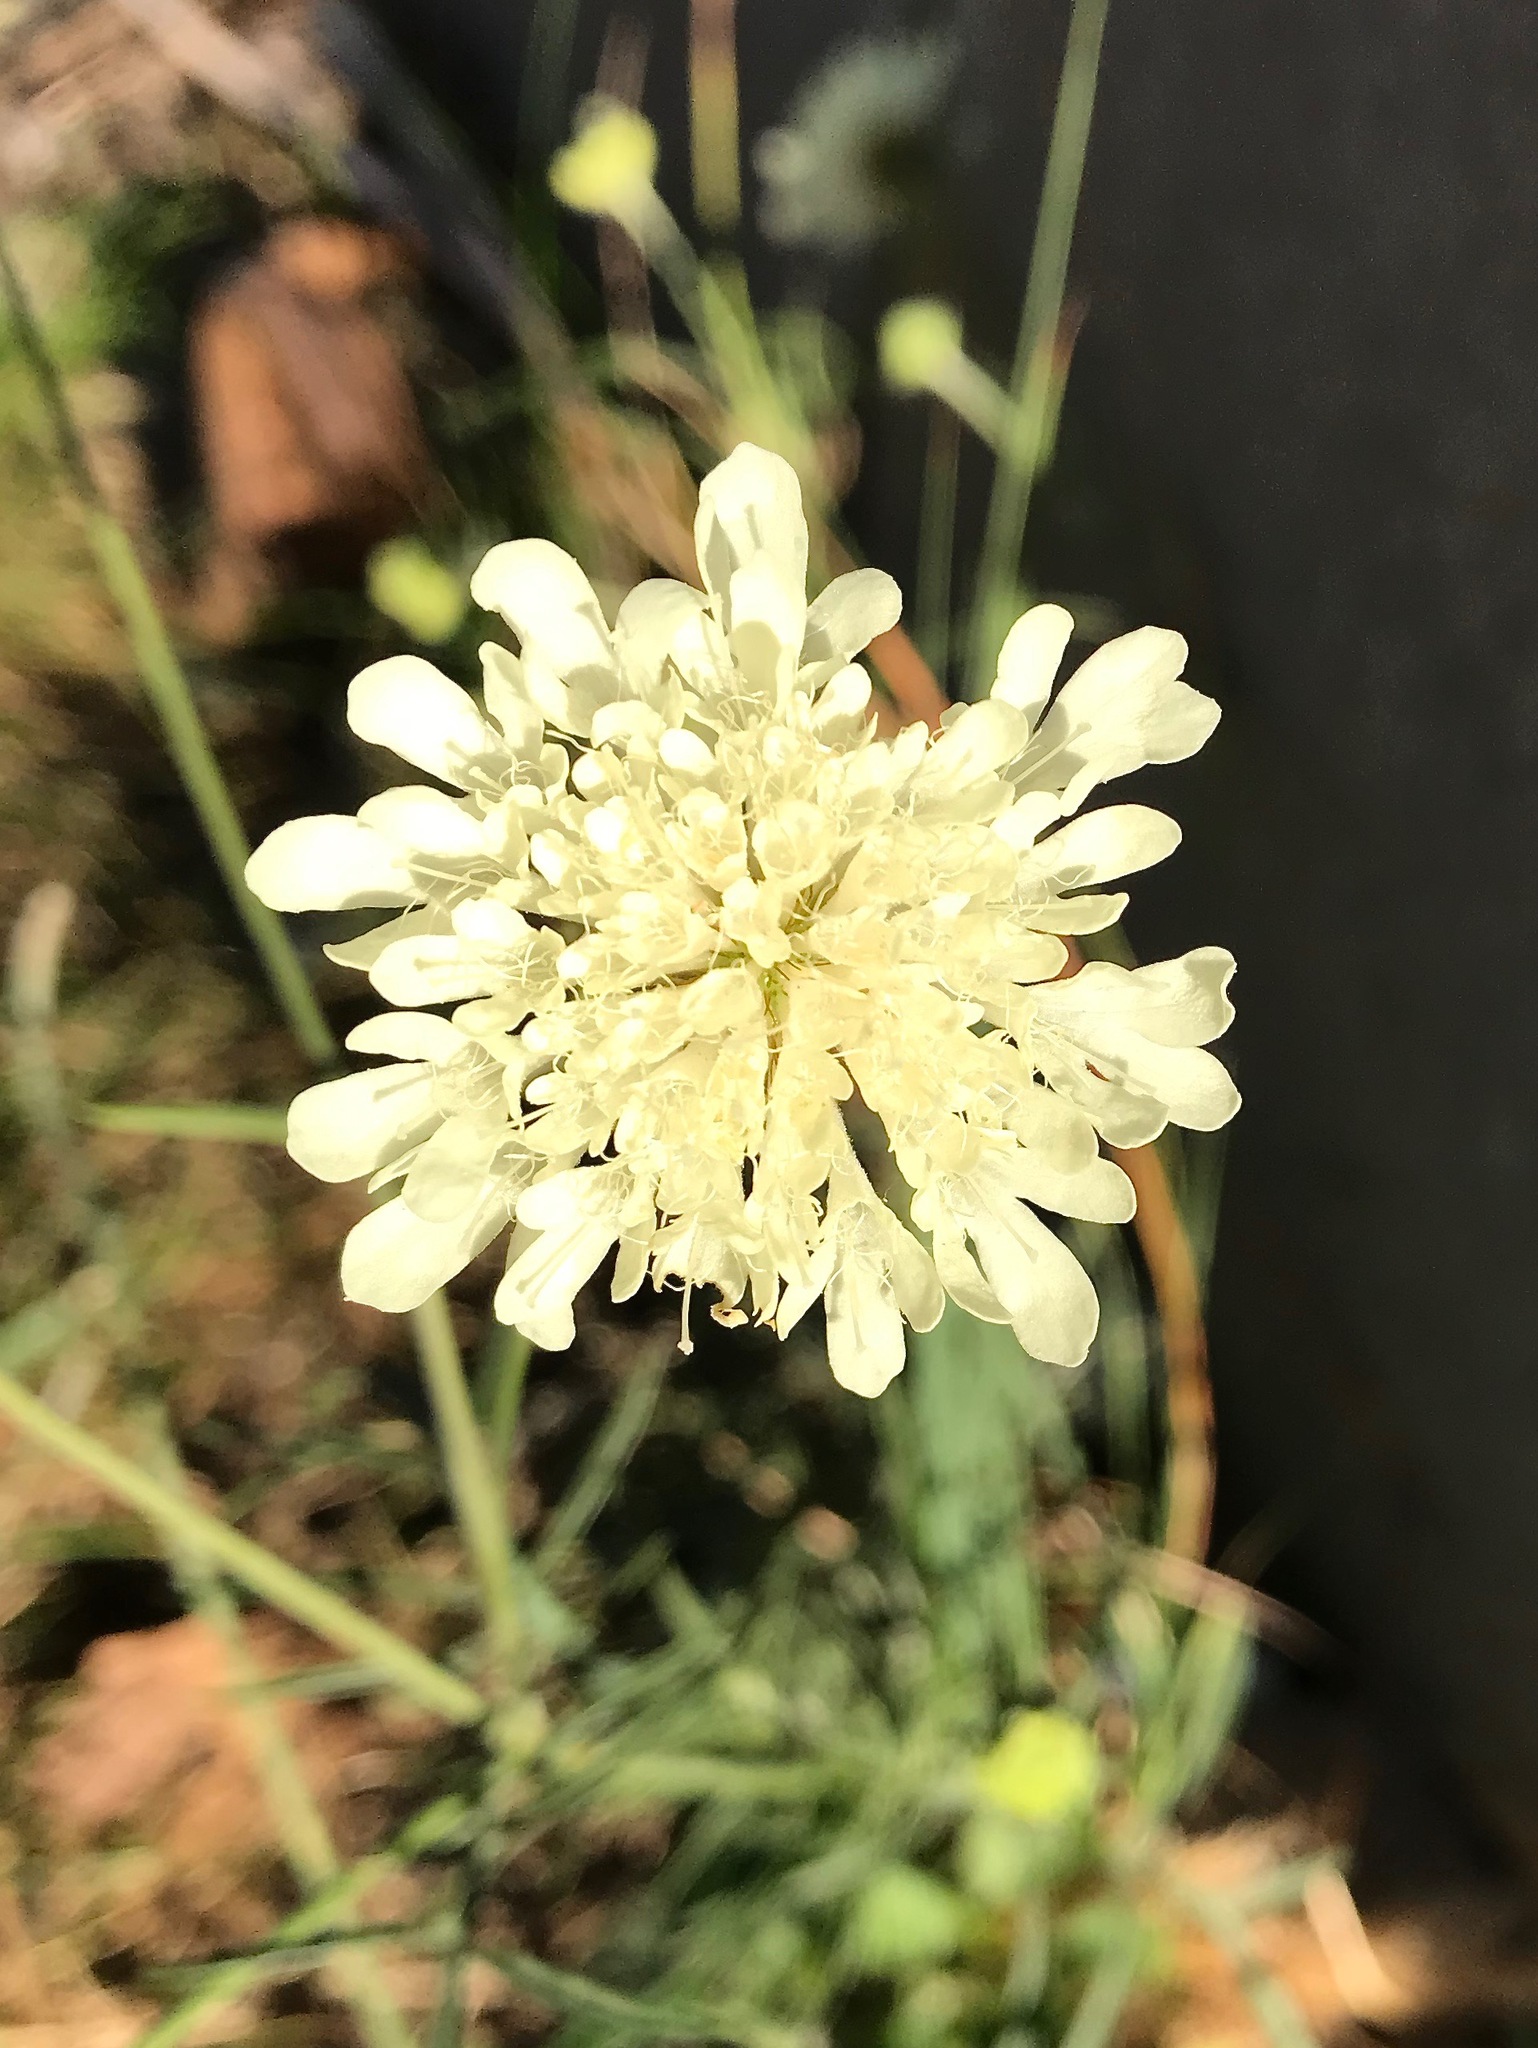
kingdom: Plantae
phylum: Tracheophyta
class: Magnoliopsida
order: Dipsacales
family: Caprifoliaceae
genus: Scabiosa
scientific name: Scabiosa ochroleuca
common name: Cream pincushions
